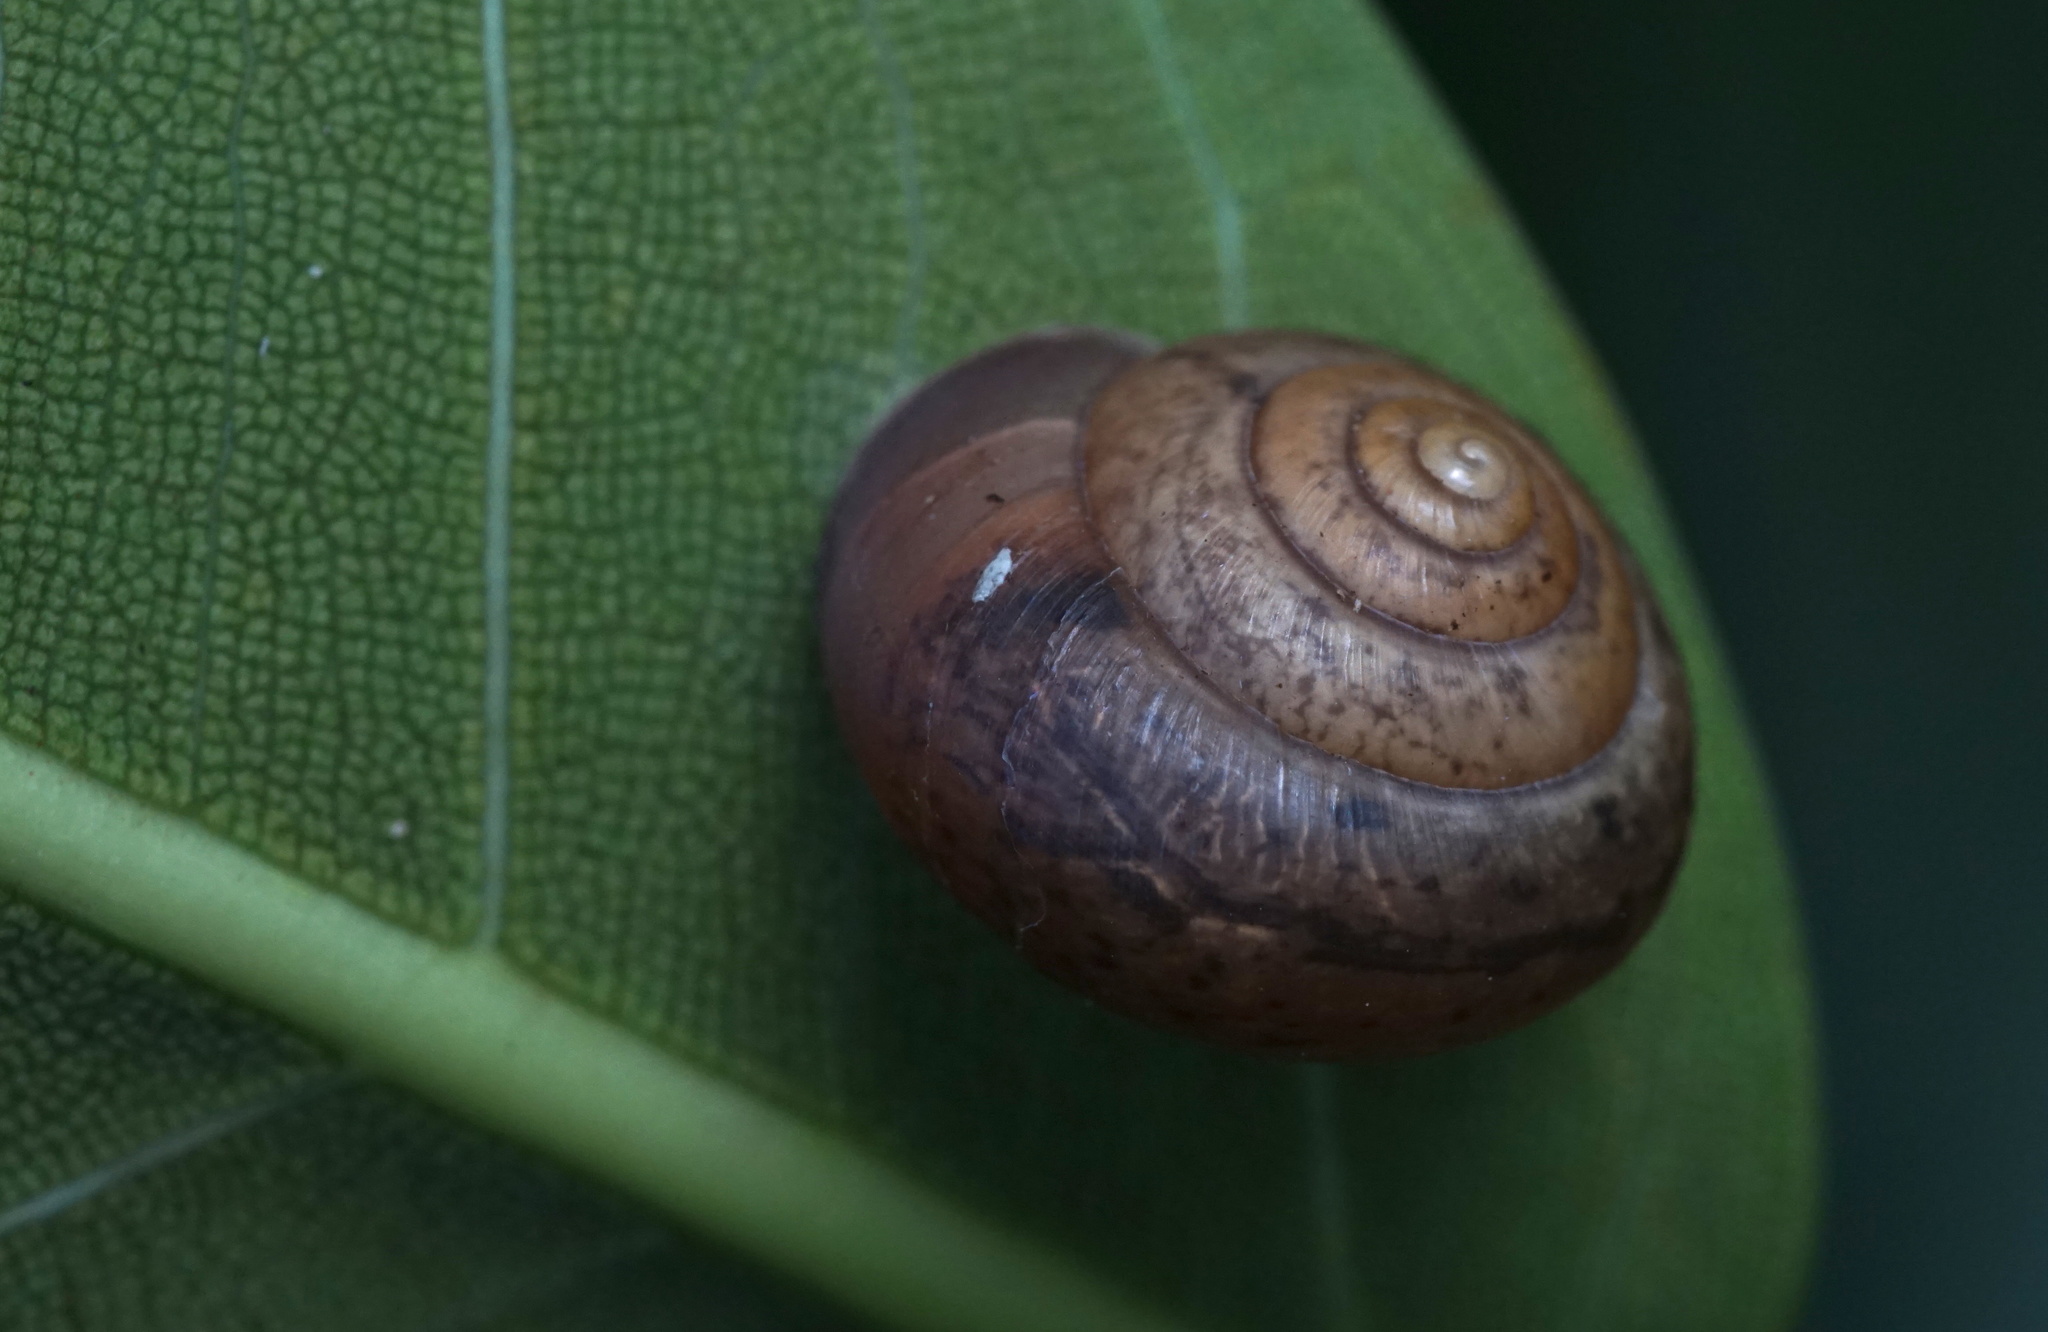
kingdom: Animalia
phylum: Mollusca
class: Gastropoda
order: Stylommatophora
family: Camaenidae
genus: Bradybaena
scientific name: Bradybaena similaris
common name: Asian trampsnail
